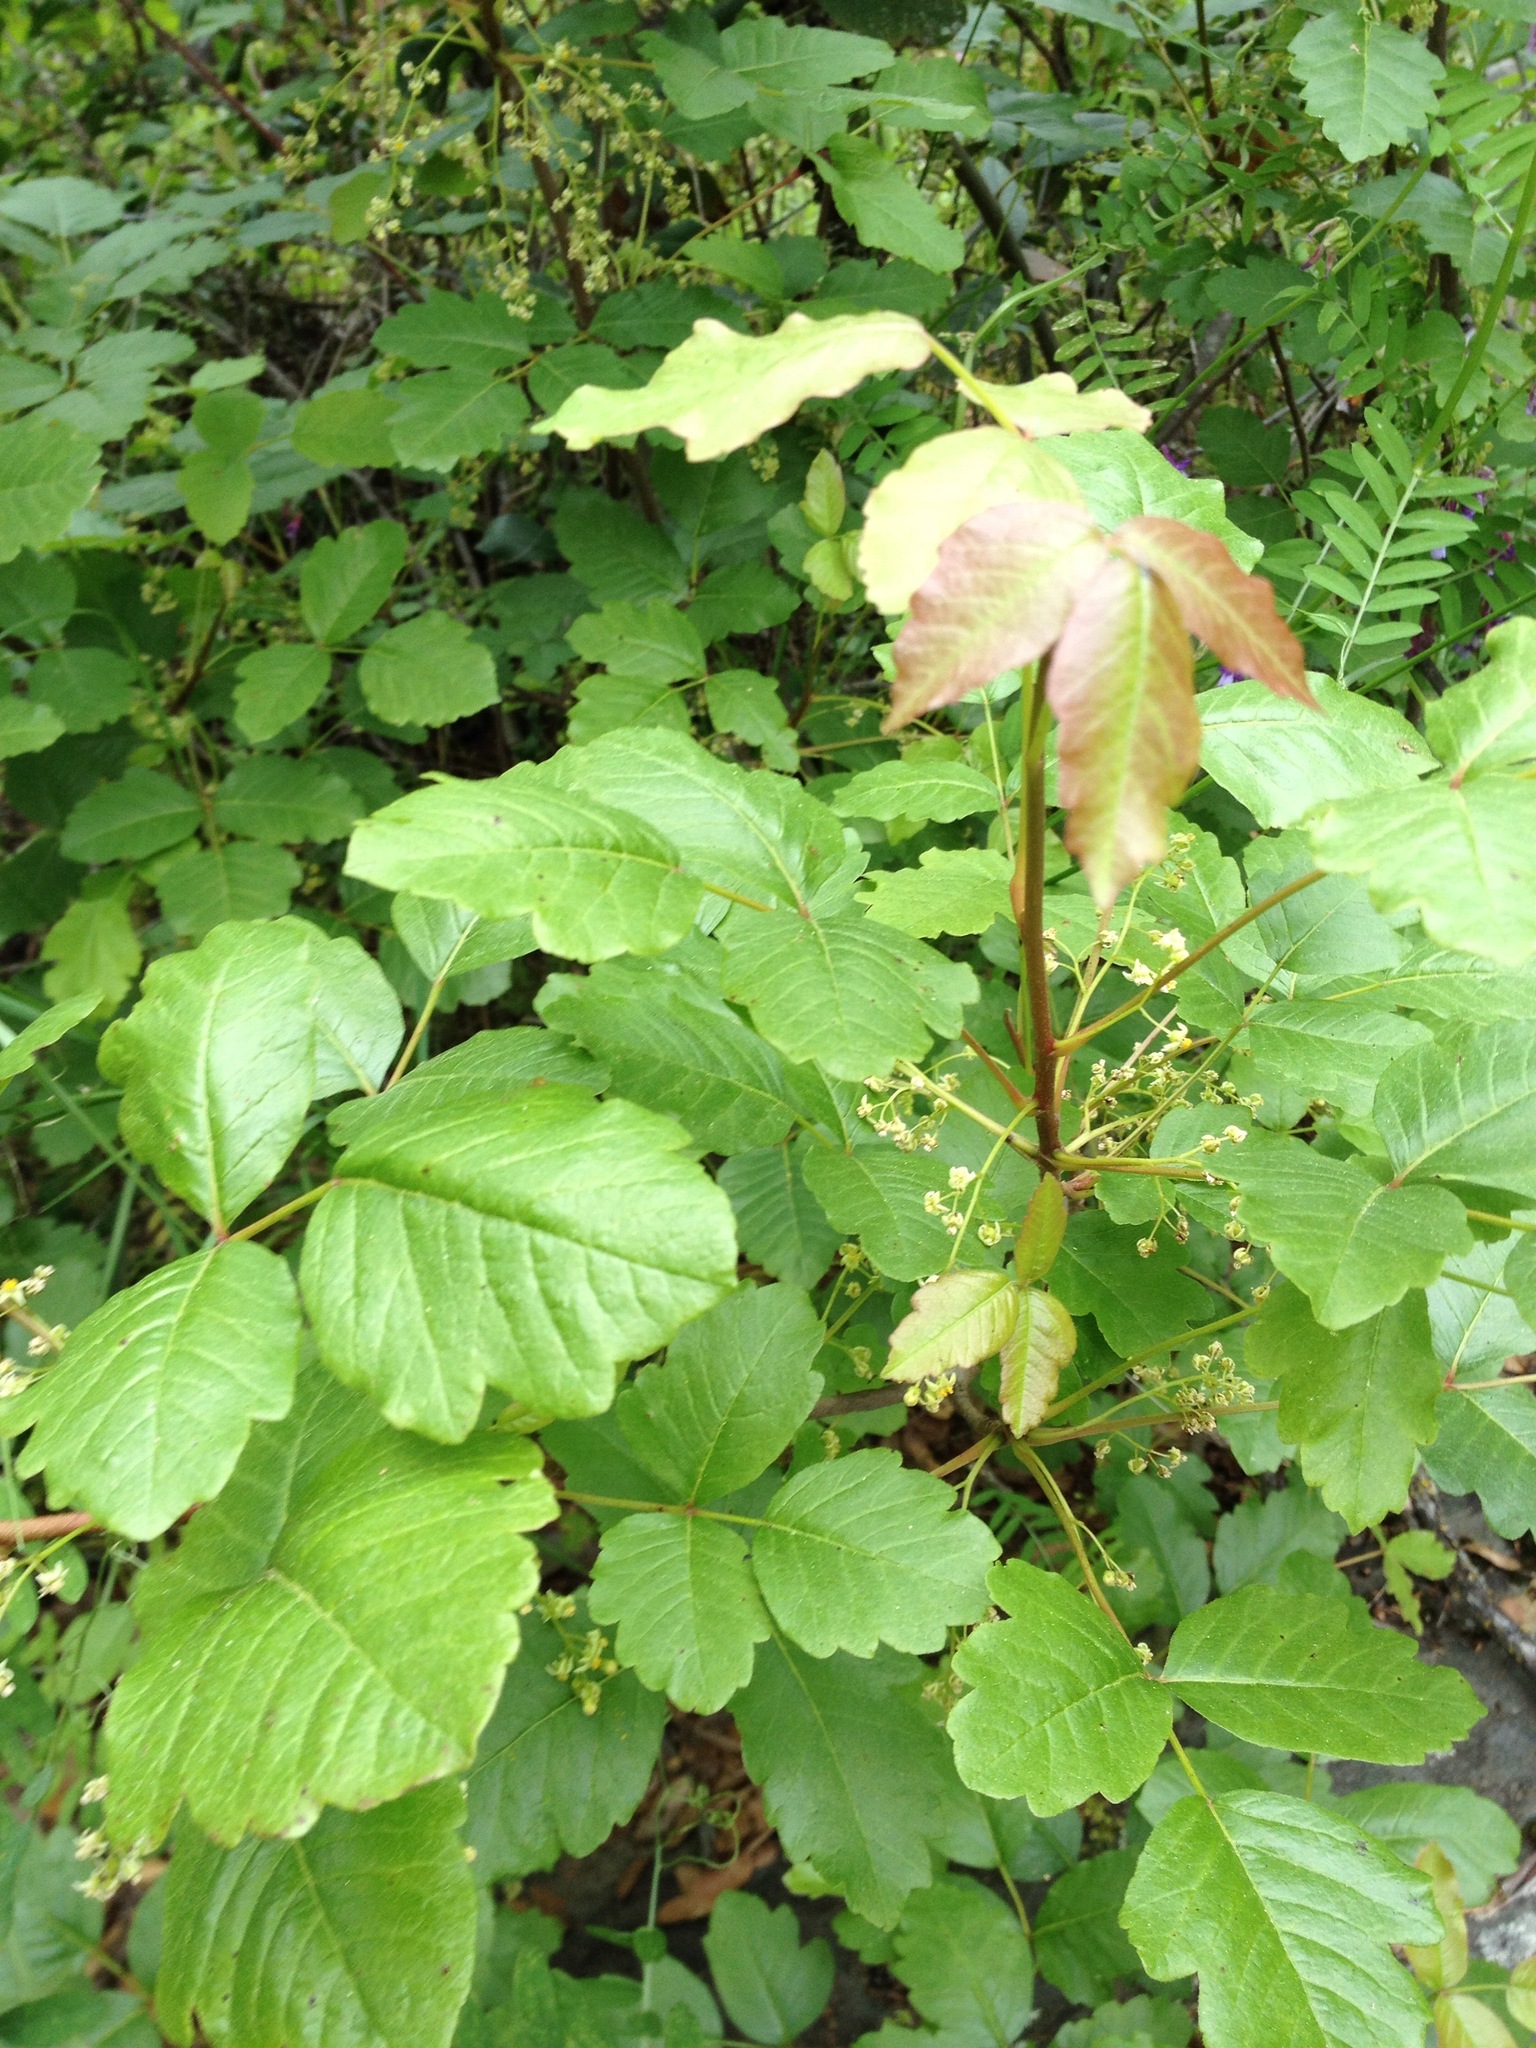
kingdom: Plantae
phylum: Tracheophyta
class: Magnoliopsida
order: Sapindales
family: Anacardiaceae
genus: Toxicodendron
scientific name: Toxicodendron diversilobum
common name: Pacific poison-oak
